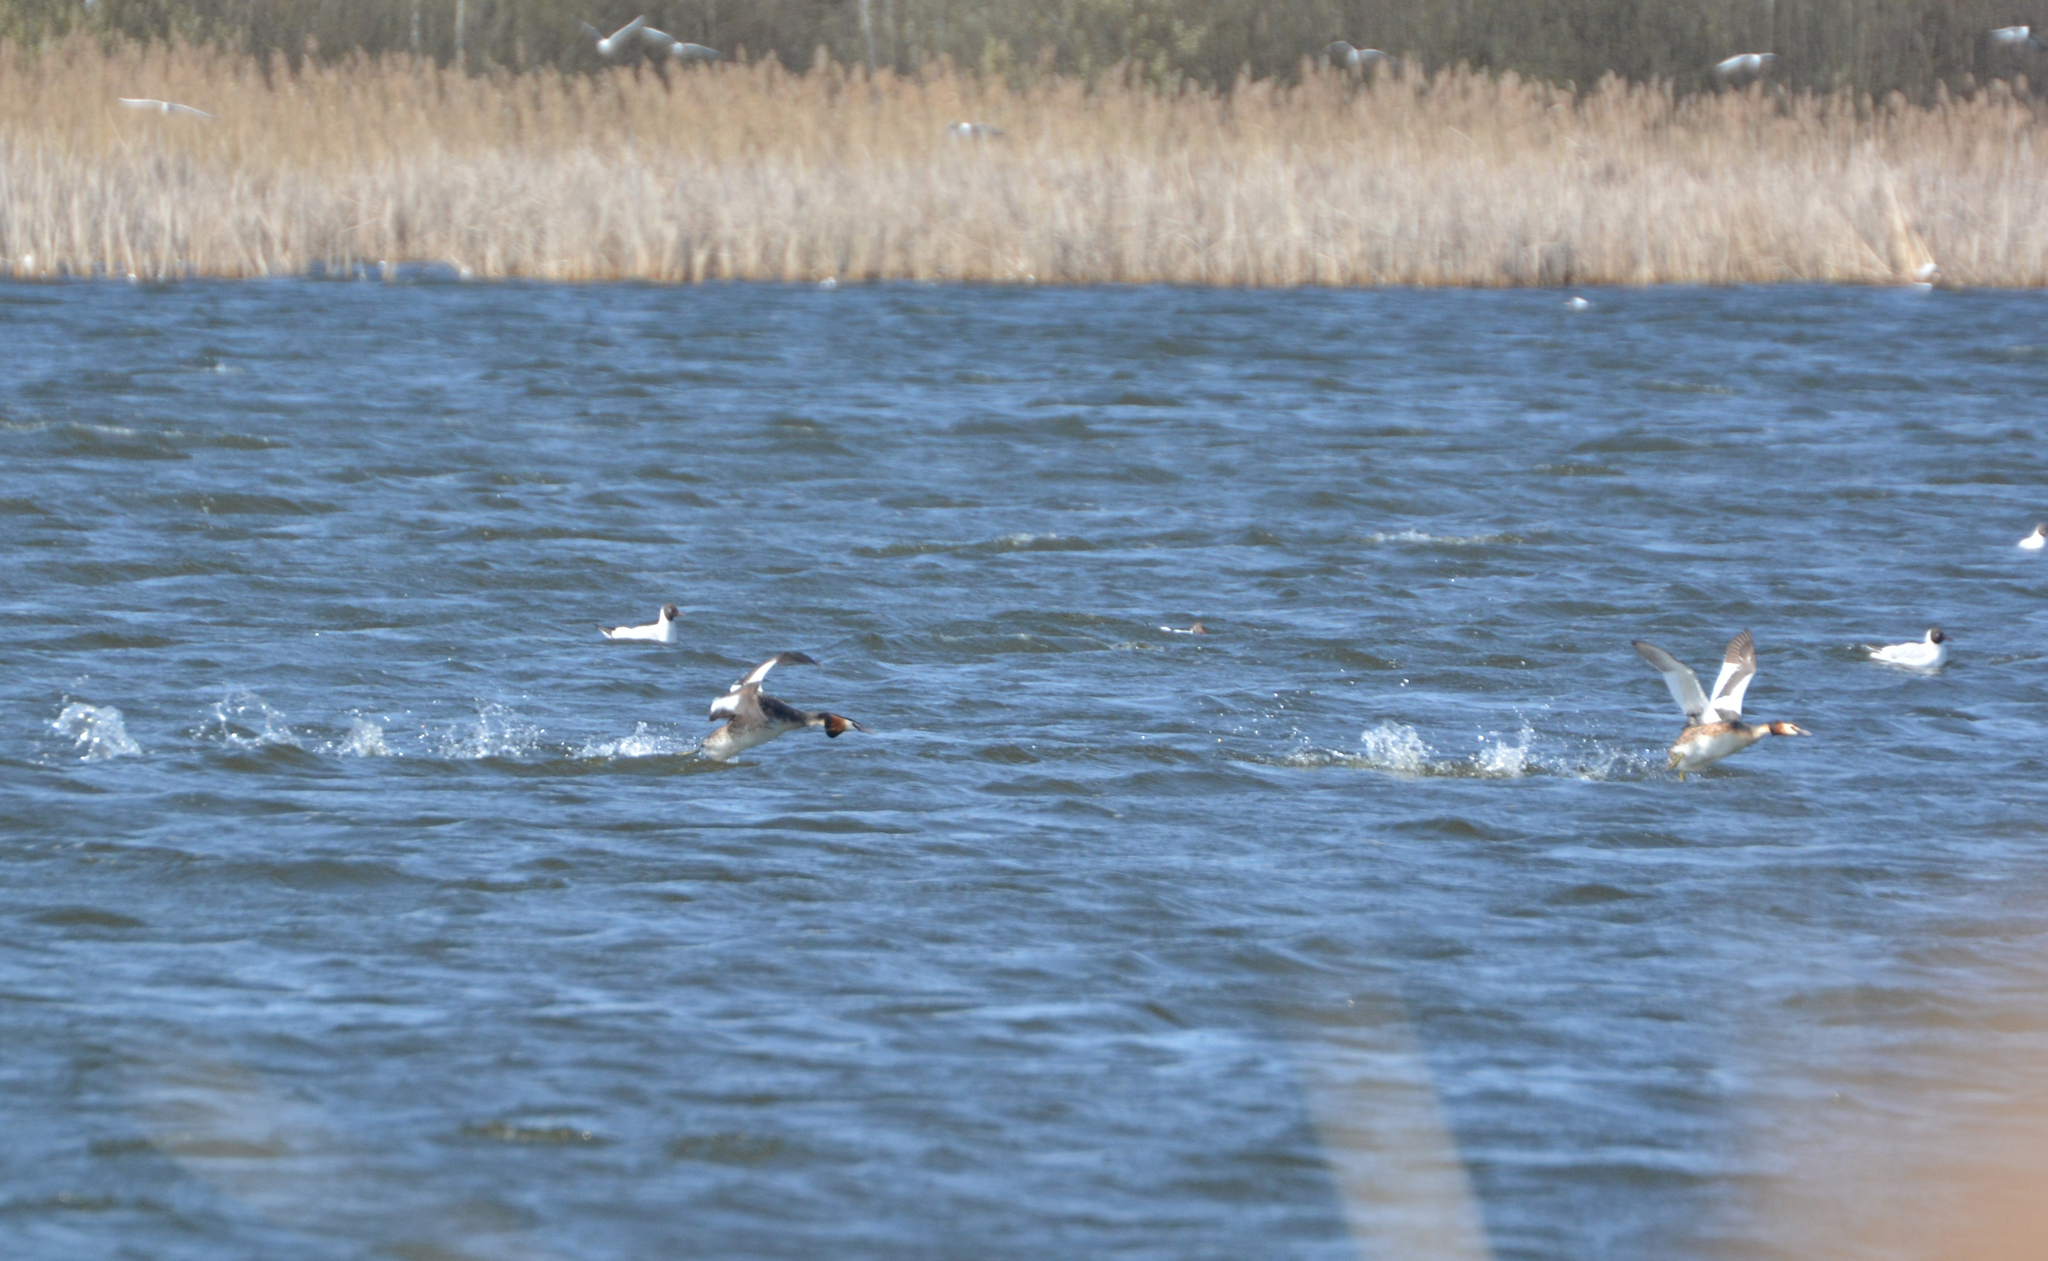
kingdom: Animalia
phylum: Chordata
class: Aves
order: Podicipediformes
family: Podicipedidae
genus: Podiceps
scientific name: Podiceps cristatus
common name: Great crested grebe
